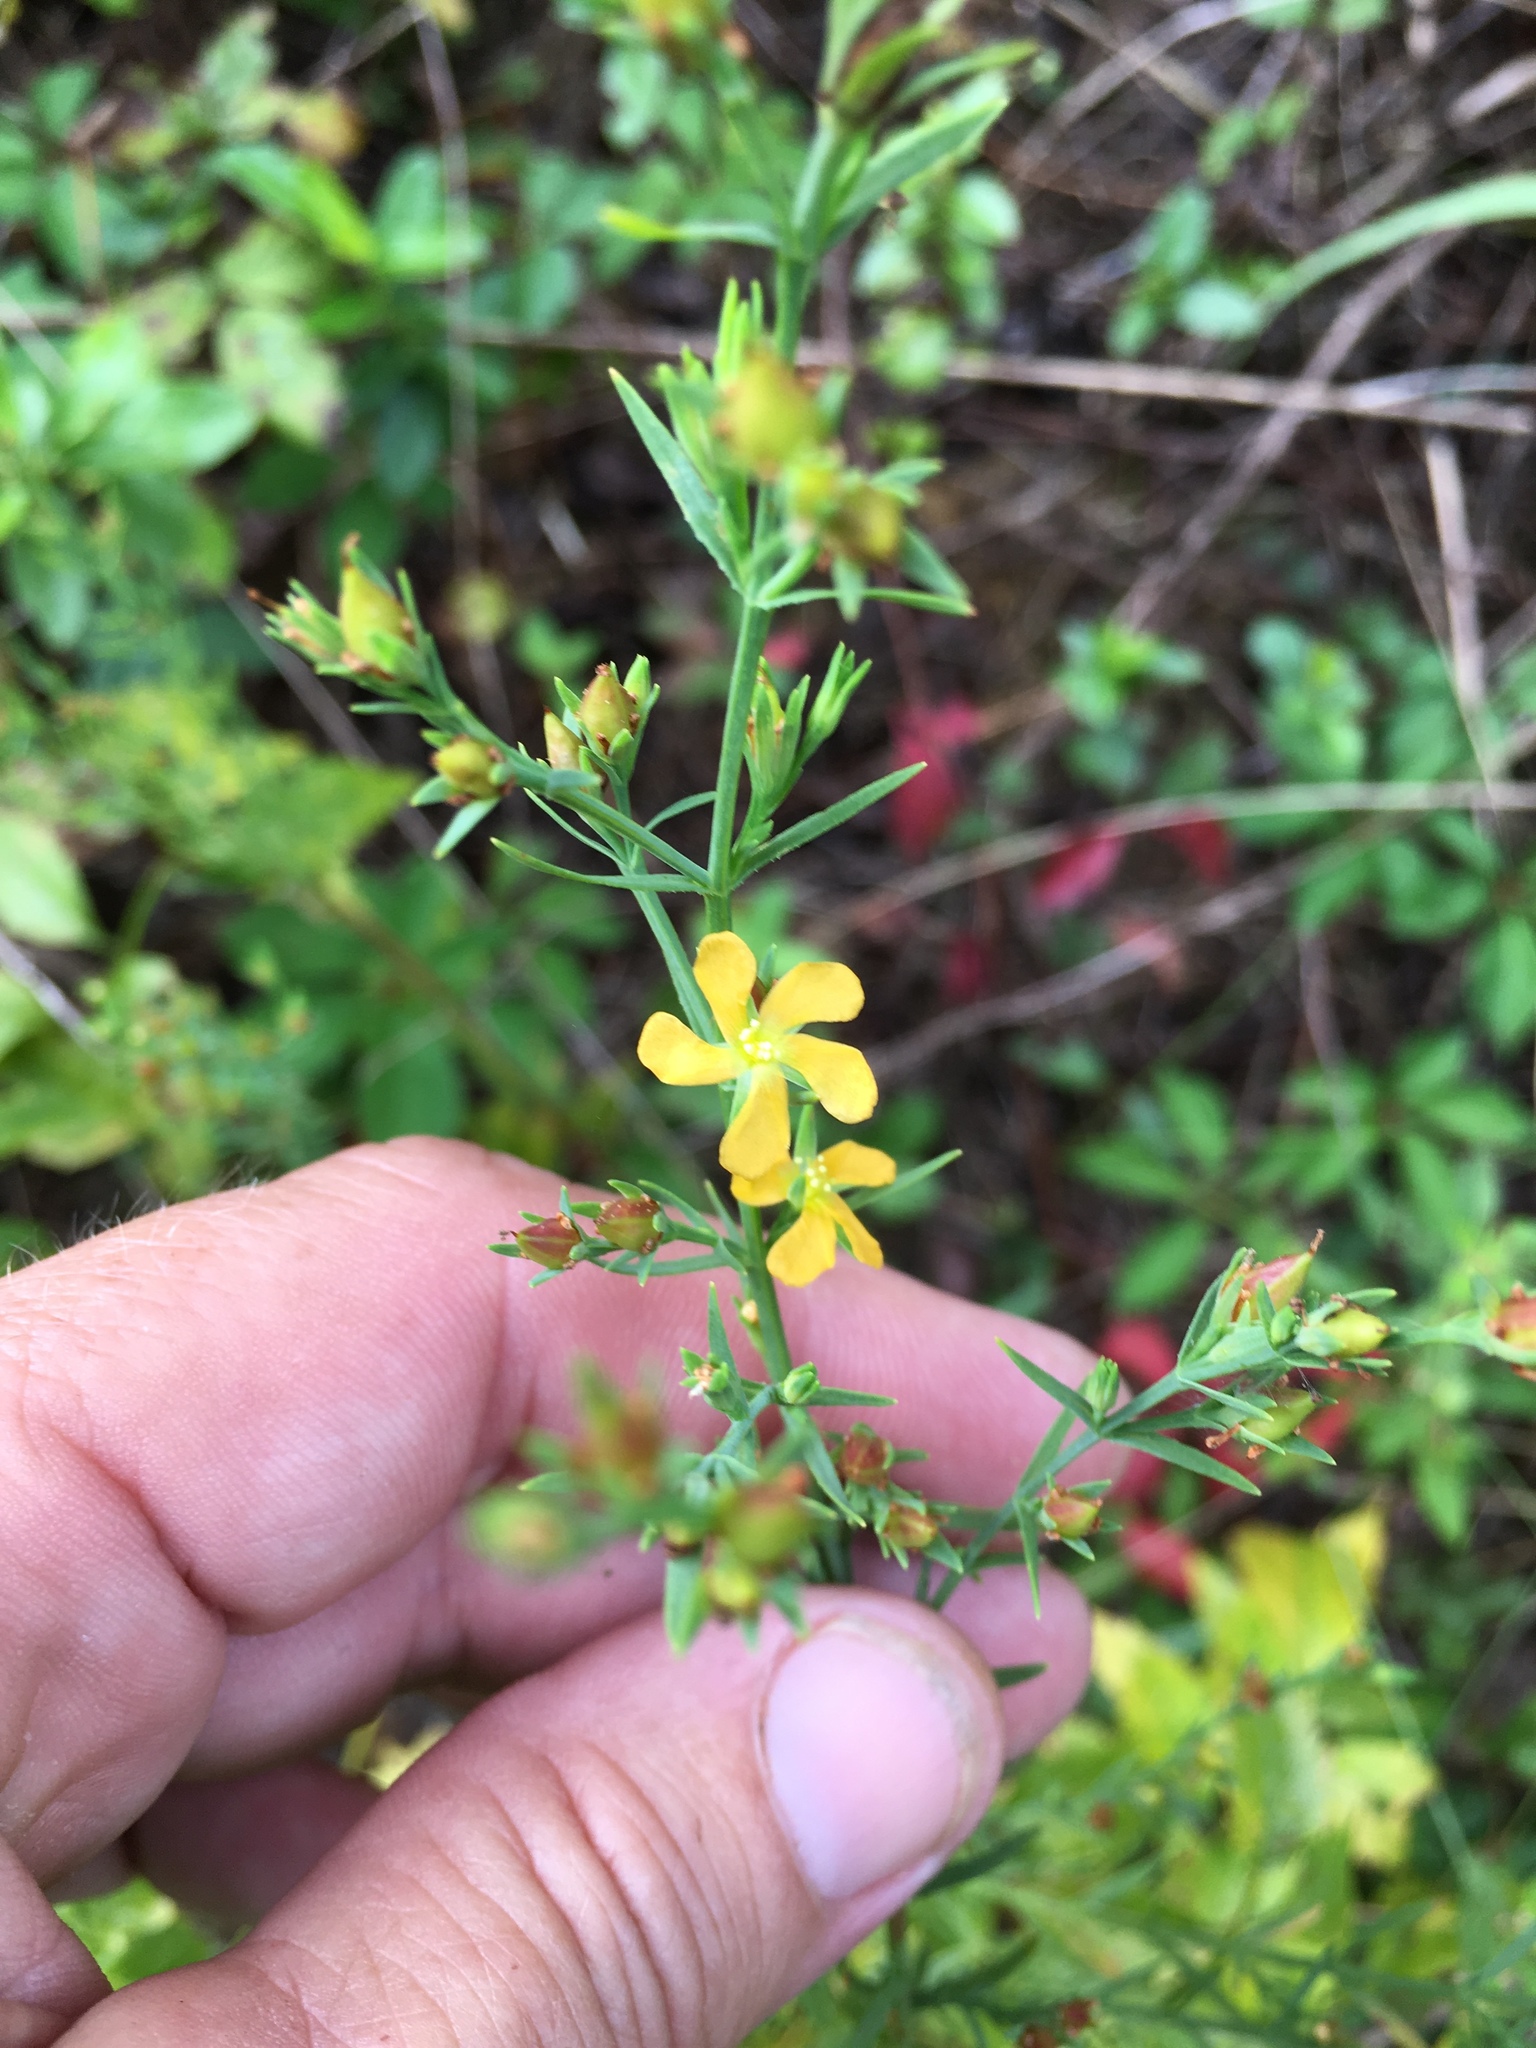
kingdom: Plantae
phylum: Tracheophyta
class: Magnoliopsida
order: Malpighiales
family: Hypericaceae
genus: Hypericum
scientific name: Hypericum drummondii
